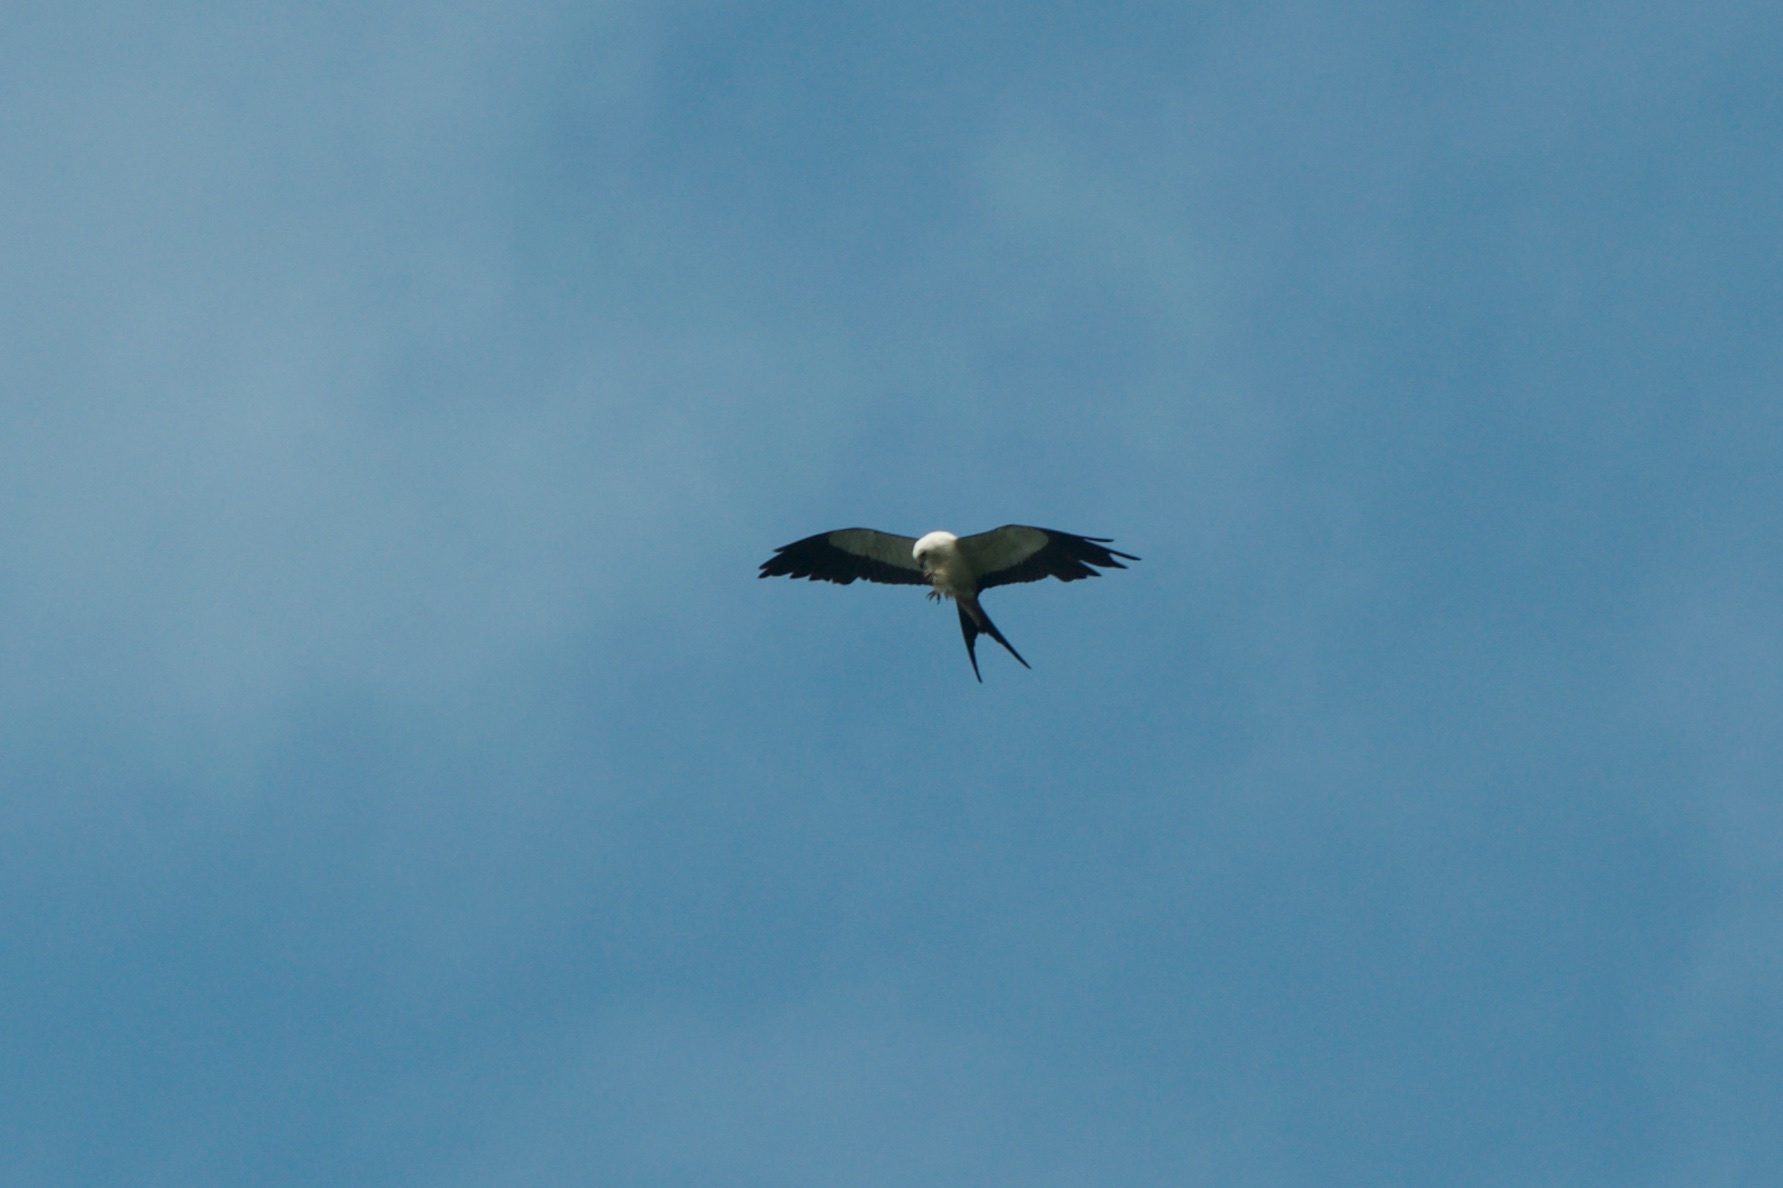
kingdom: Animalia
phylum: Chordata
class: Aves
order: Accipitriformes
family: Accipitridae
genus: Elanoides
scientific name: Elanoides forficatus
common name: Swallow-tailed kite
